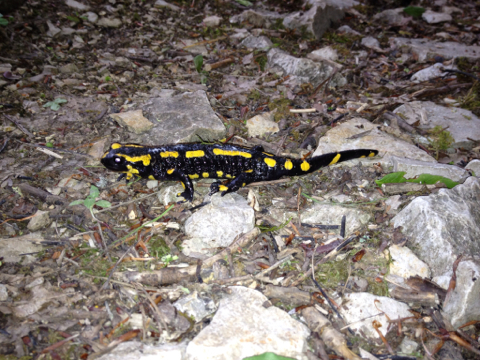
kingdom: Animalia
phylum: Chordata
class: Amphibia
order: Caudata
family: Salamandridae
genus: Salamandra
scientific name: Salamandra salamandra
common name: Fire salamander
